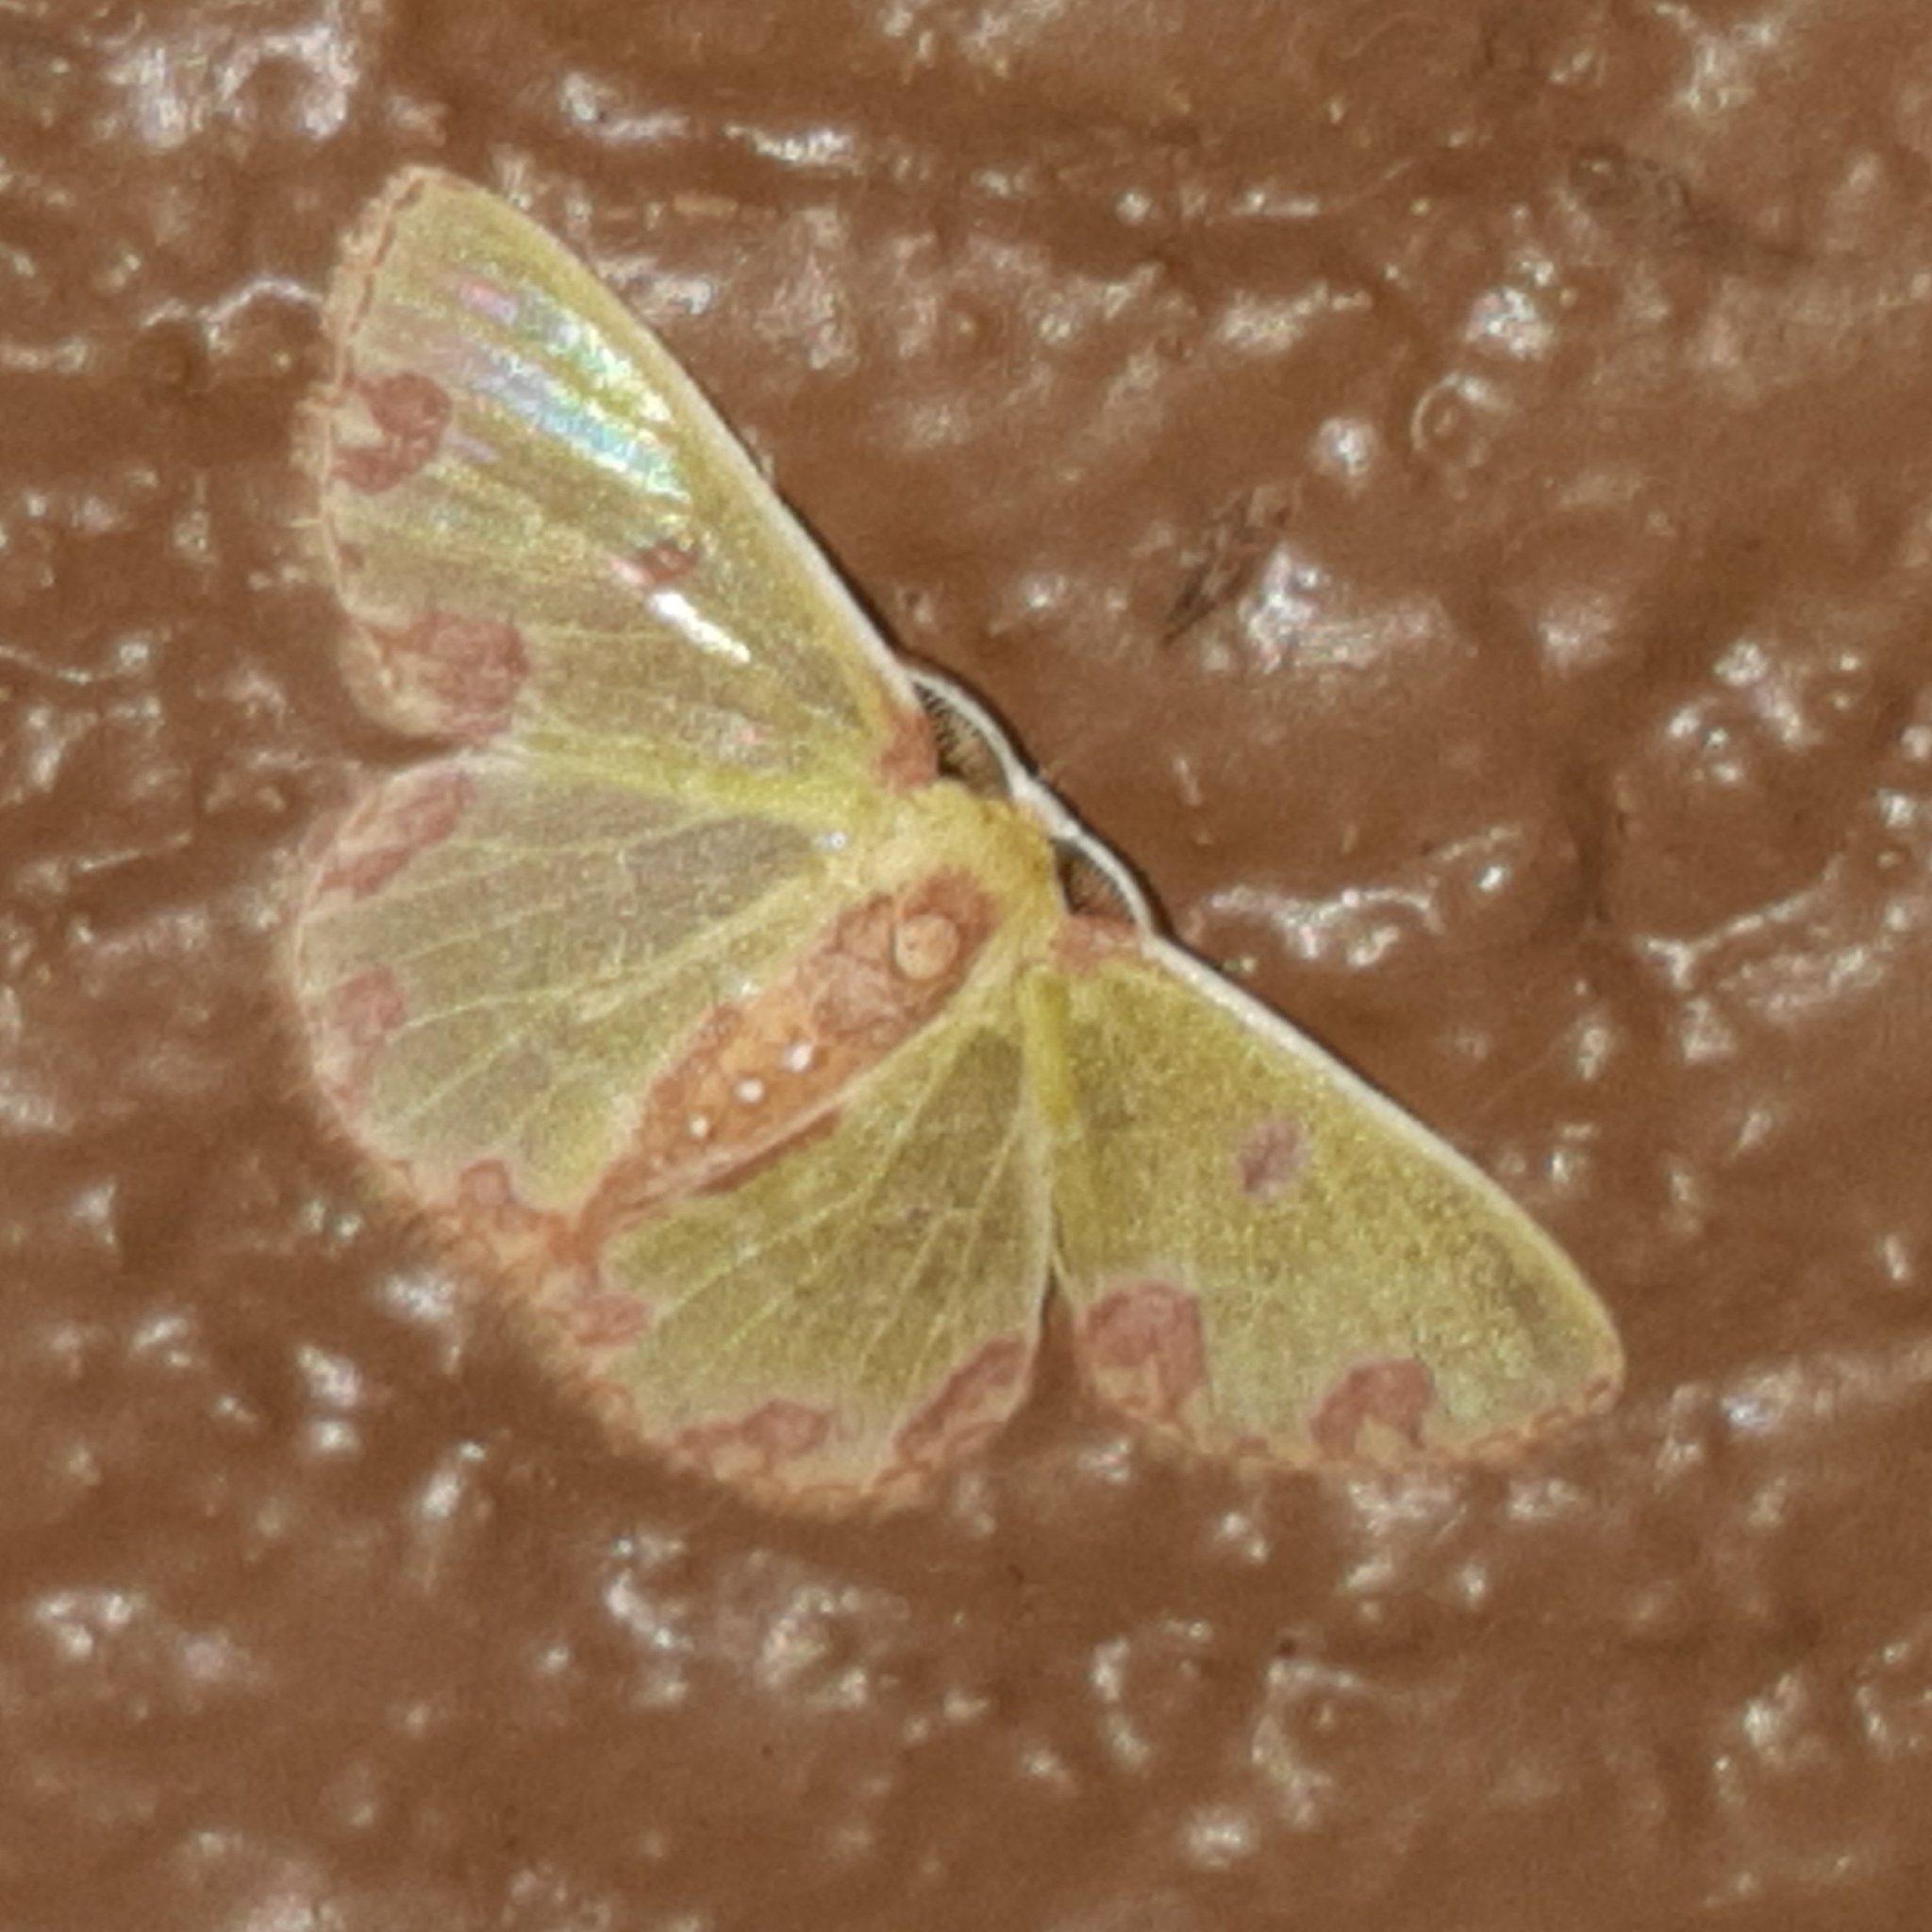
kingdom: Animalia
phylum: Arthropoda
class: Insecta
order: Lepidoptera
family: Geometridae
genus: Synchlora
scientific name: Synchlora gerularia
